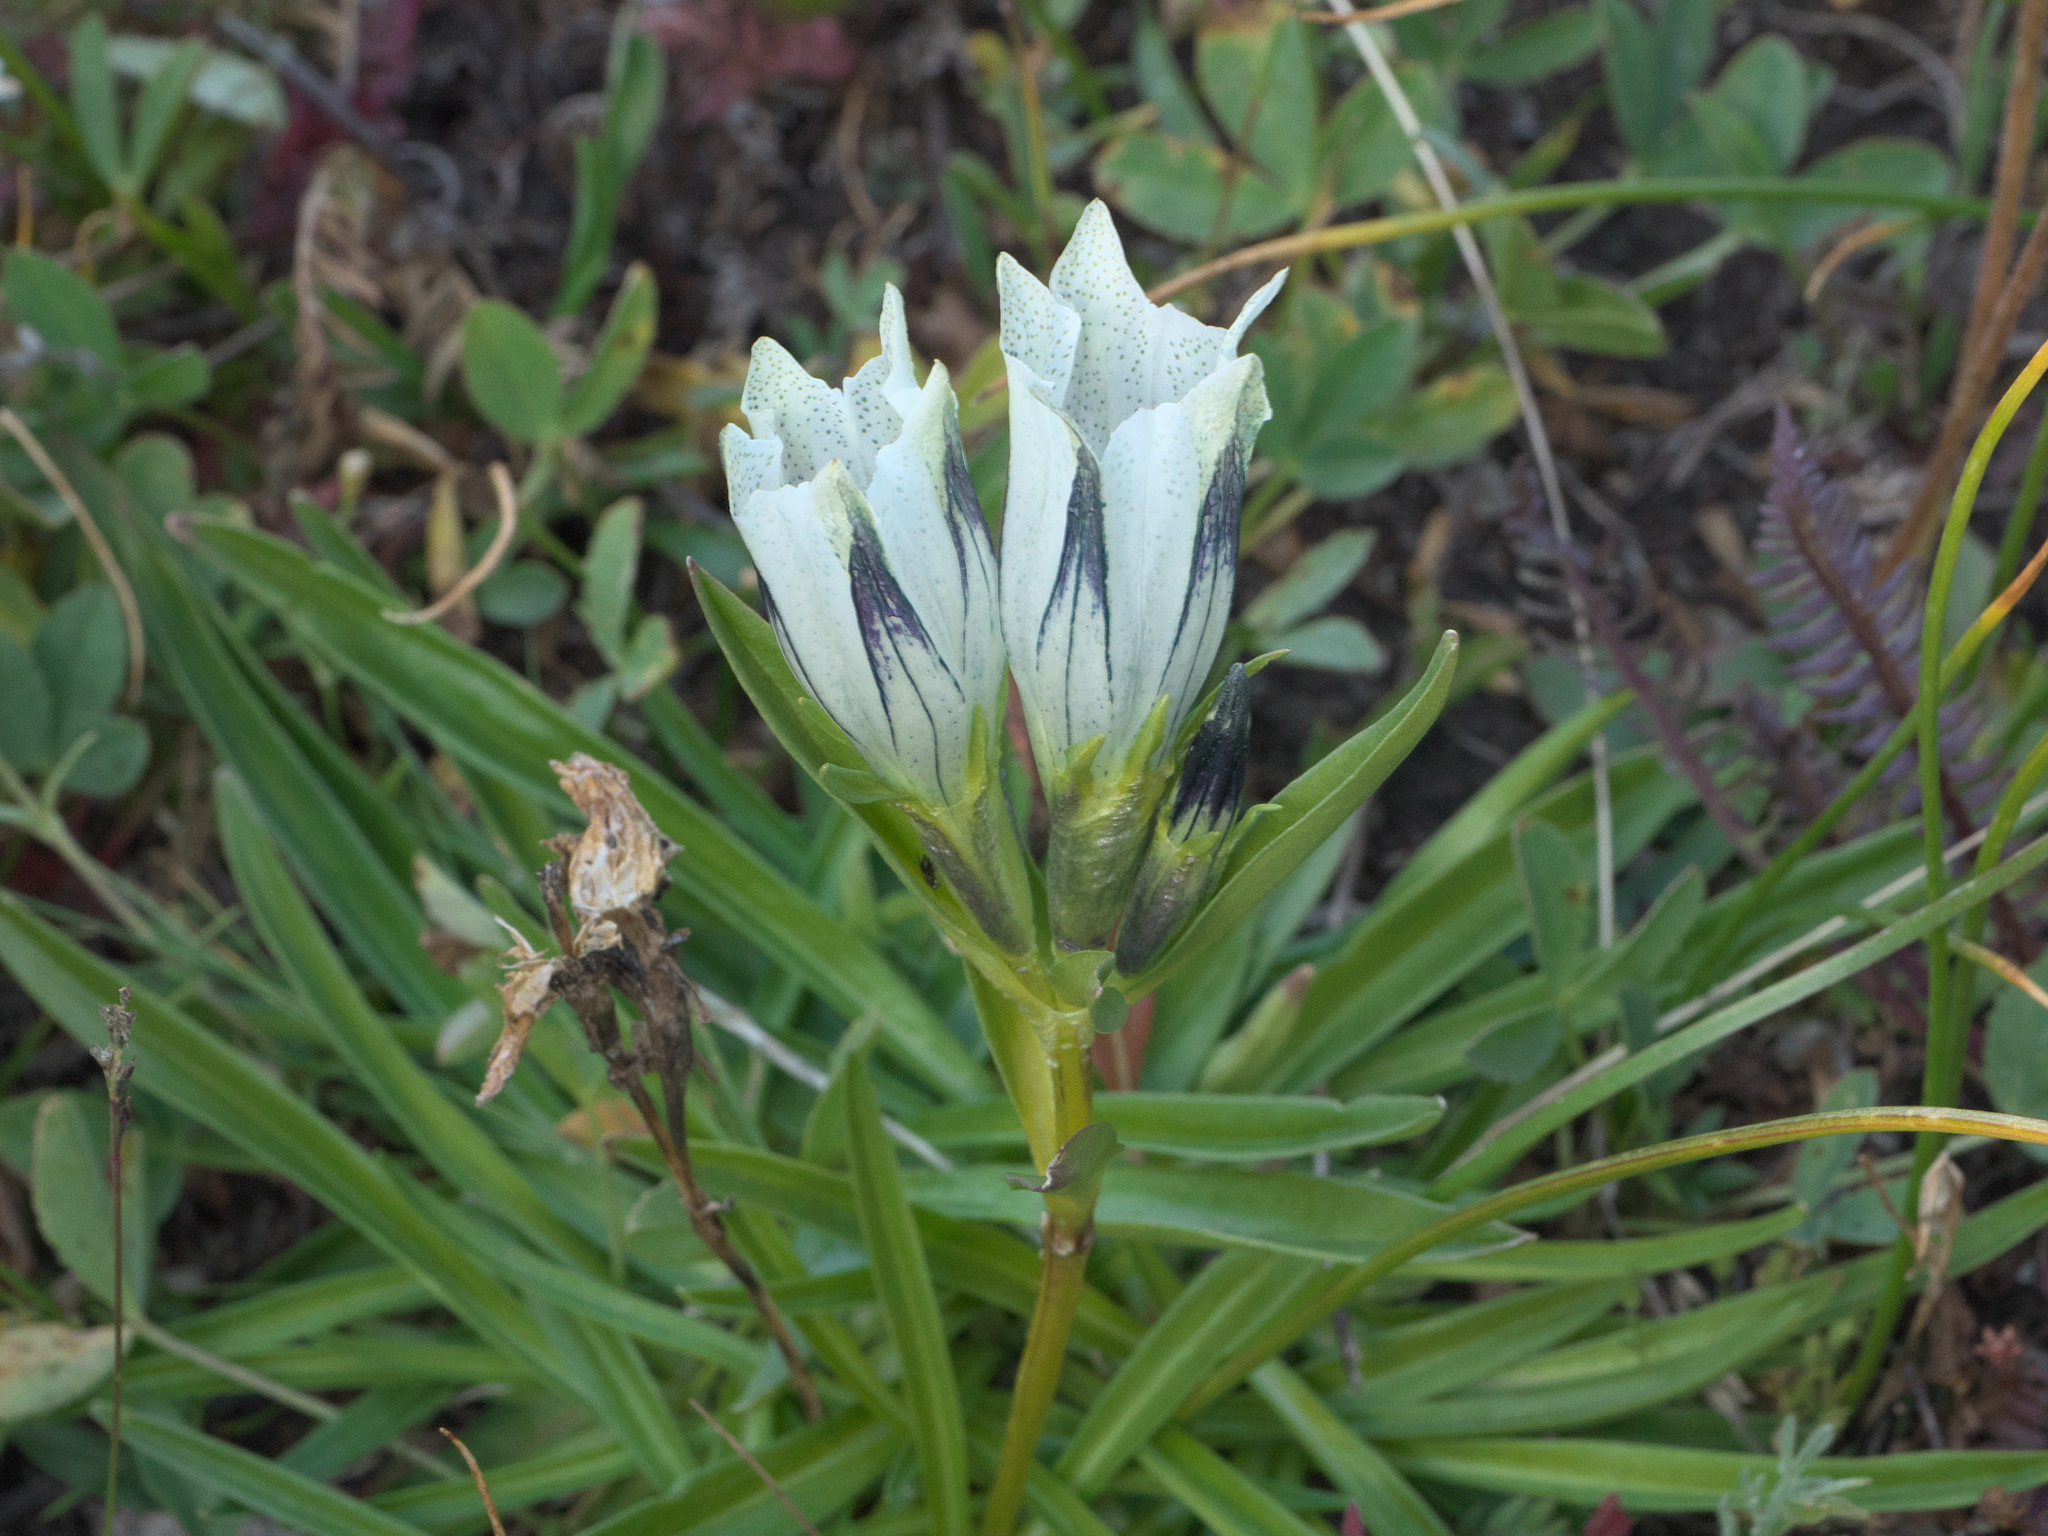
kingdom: Plantae
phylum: Tracheophyta
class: Magnoliopsida
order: Gentianales
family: Gentianaceae
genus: Gentiana
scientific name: Gentiana algida
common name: Arctic gentian
